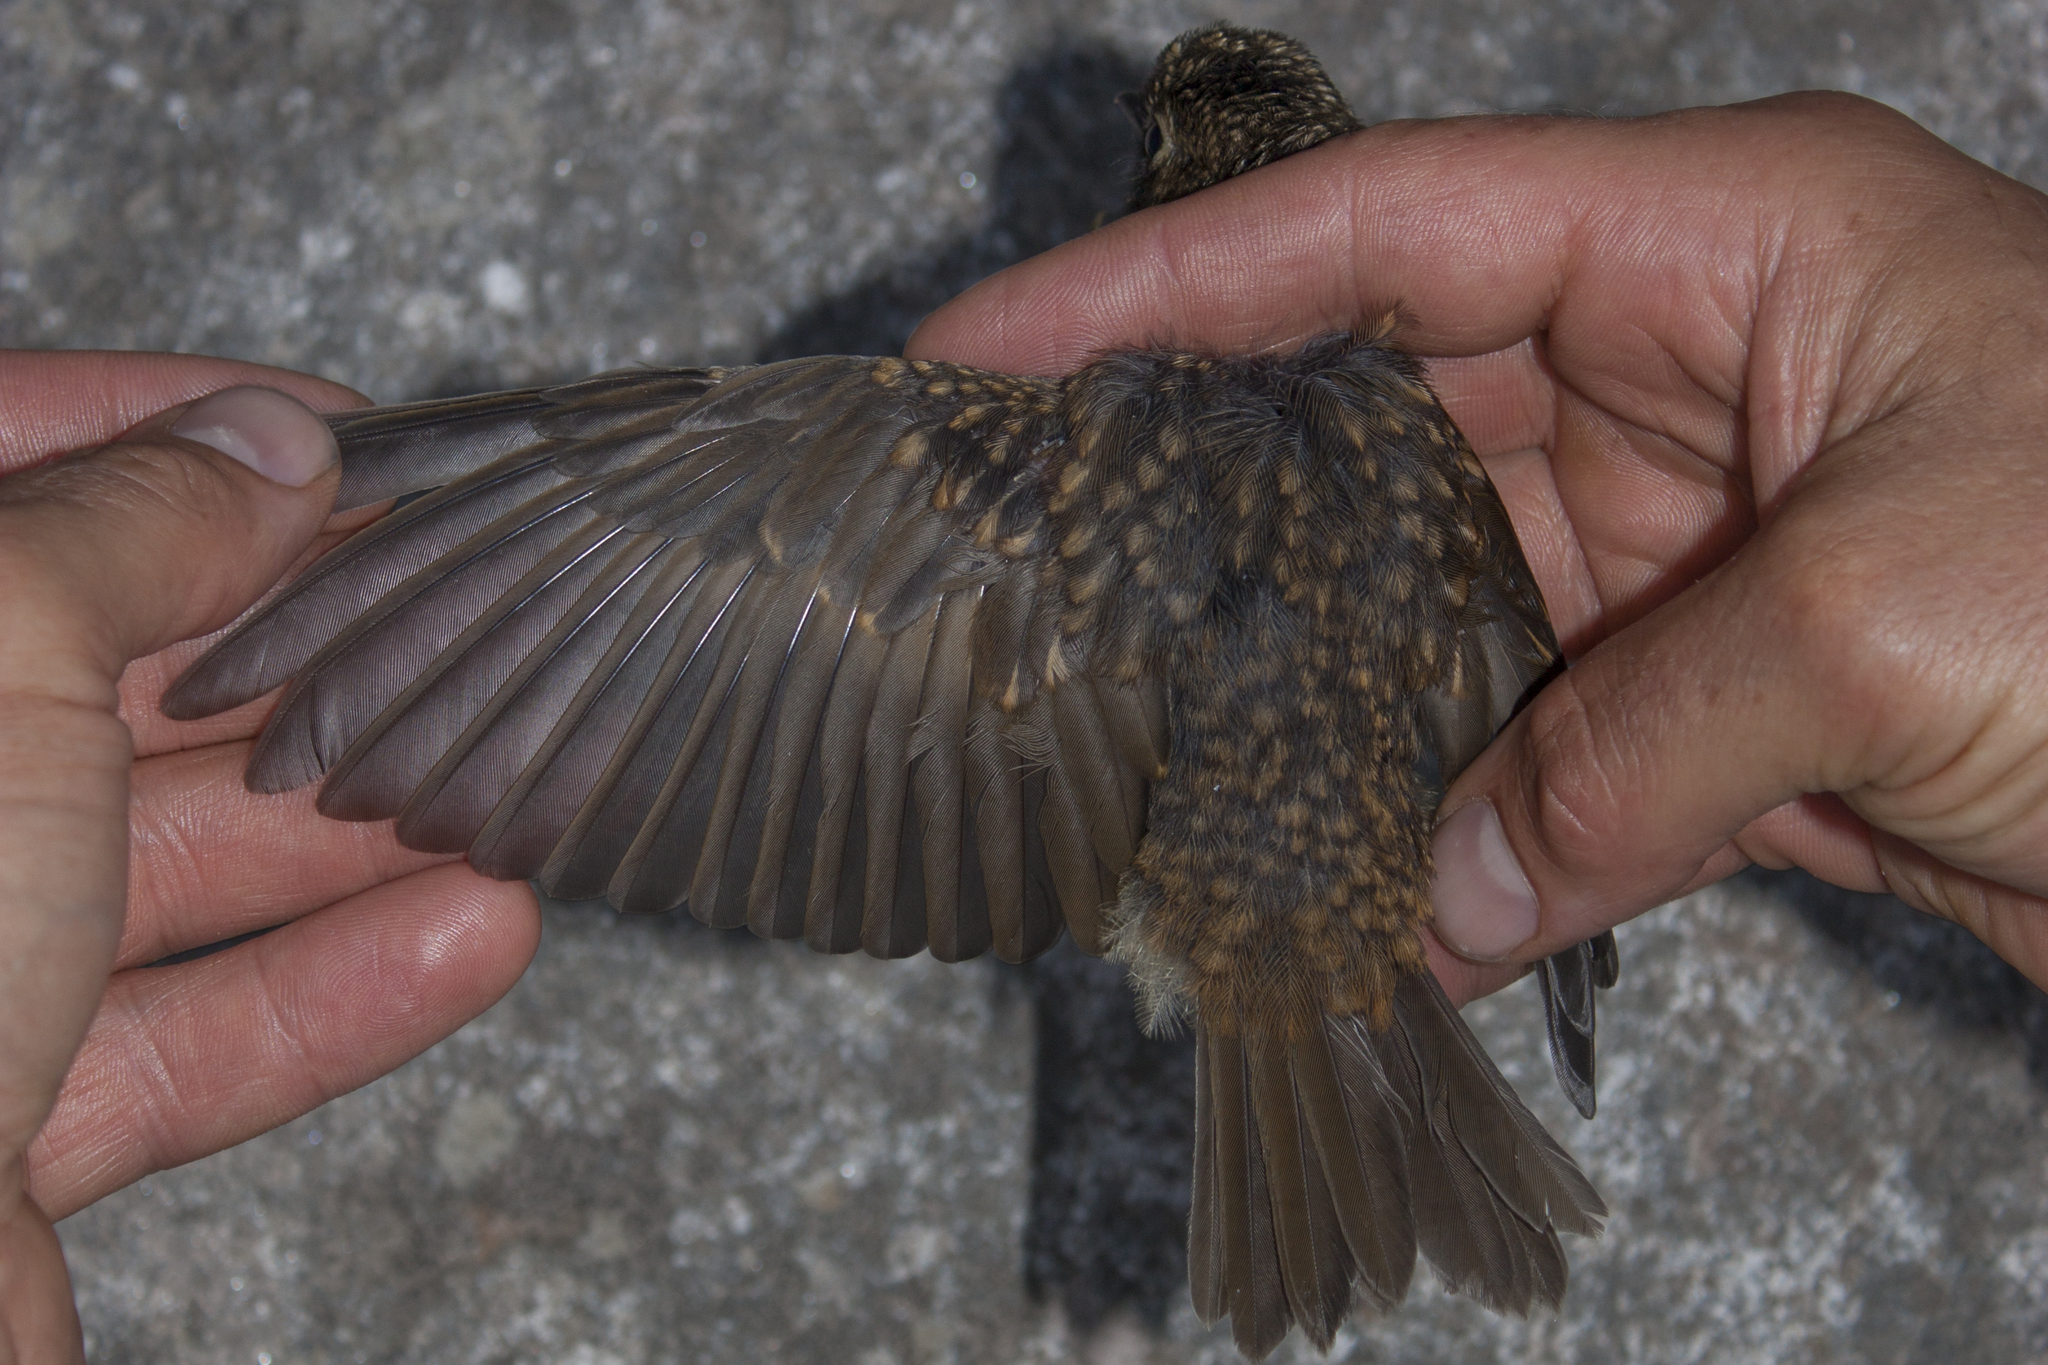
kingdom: Animalia
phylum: Chordata
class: Aves
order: Passeriformes
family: Turdidae
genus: Catharus
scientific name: Catharus bicknelli
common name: Bicknell's thrush
